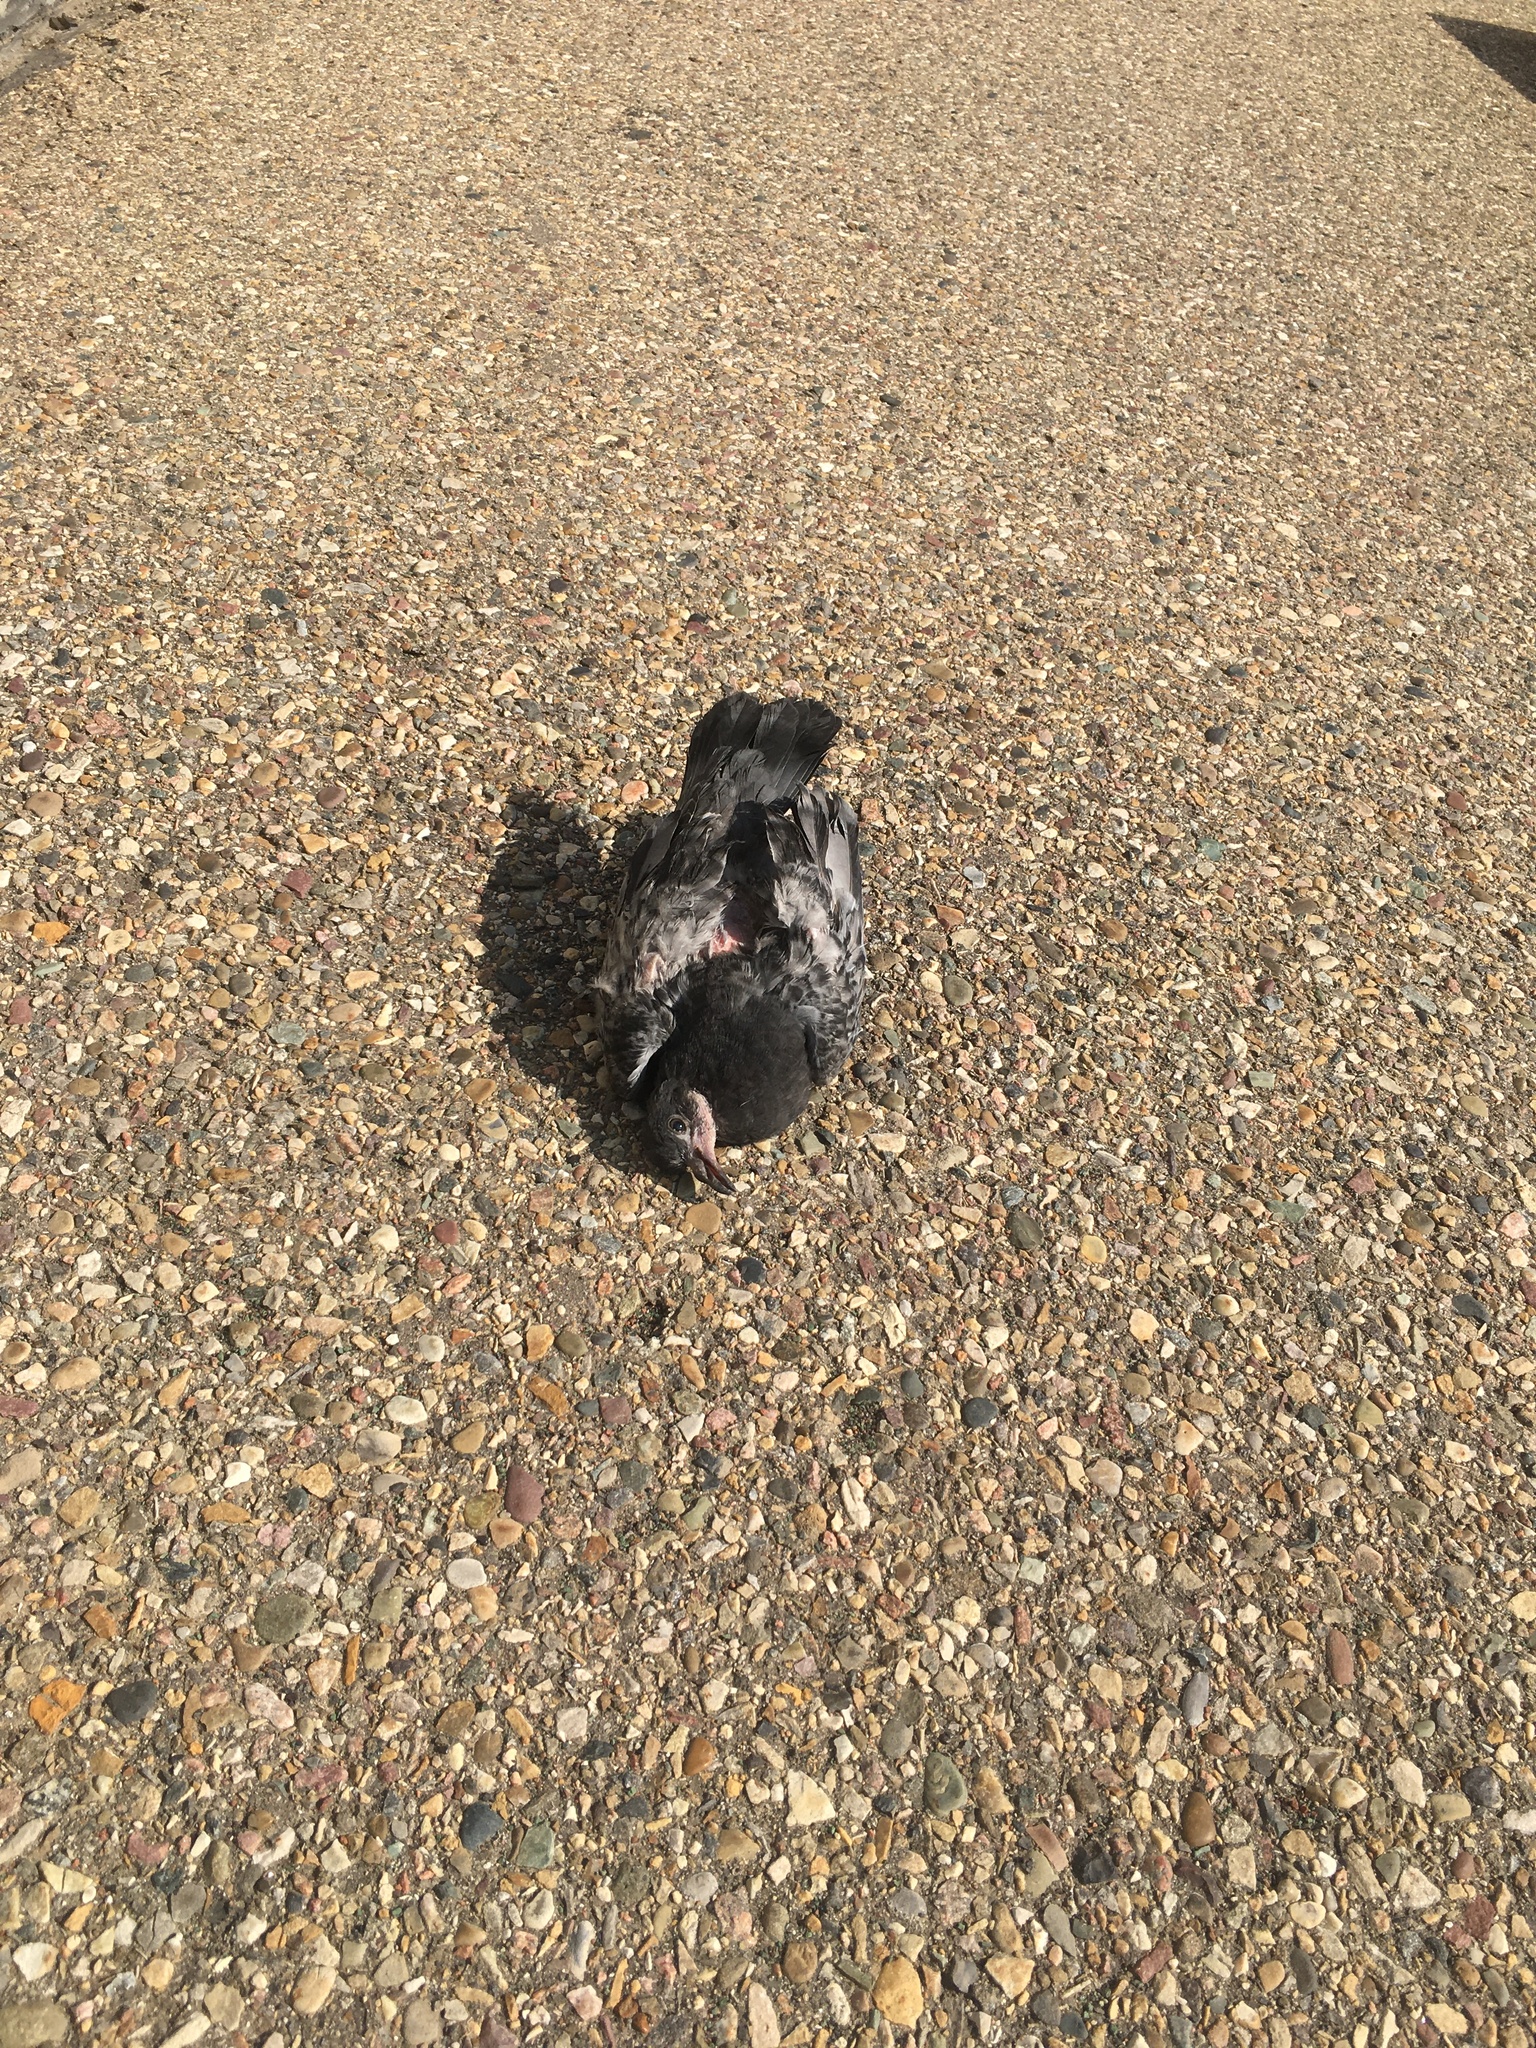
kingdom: Animalia
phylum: Chordata
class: Aves
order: Columbiformes
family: Columbidae
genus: Columba
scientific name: Columba livia
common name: Rock pigeon
